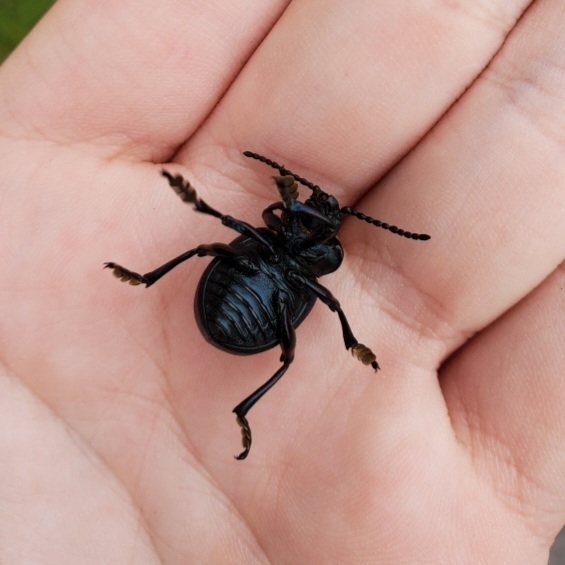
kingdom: Animalia
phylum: Arthropoda
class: Insecta
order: Coleoptera
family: Chrysomelidae
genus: Timarcha
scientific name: Timarcha tenebricosa
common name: Bloody-nosed beetle
